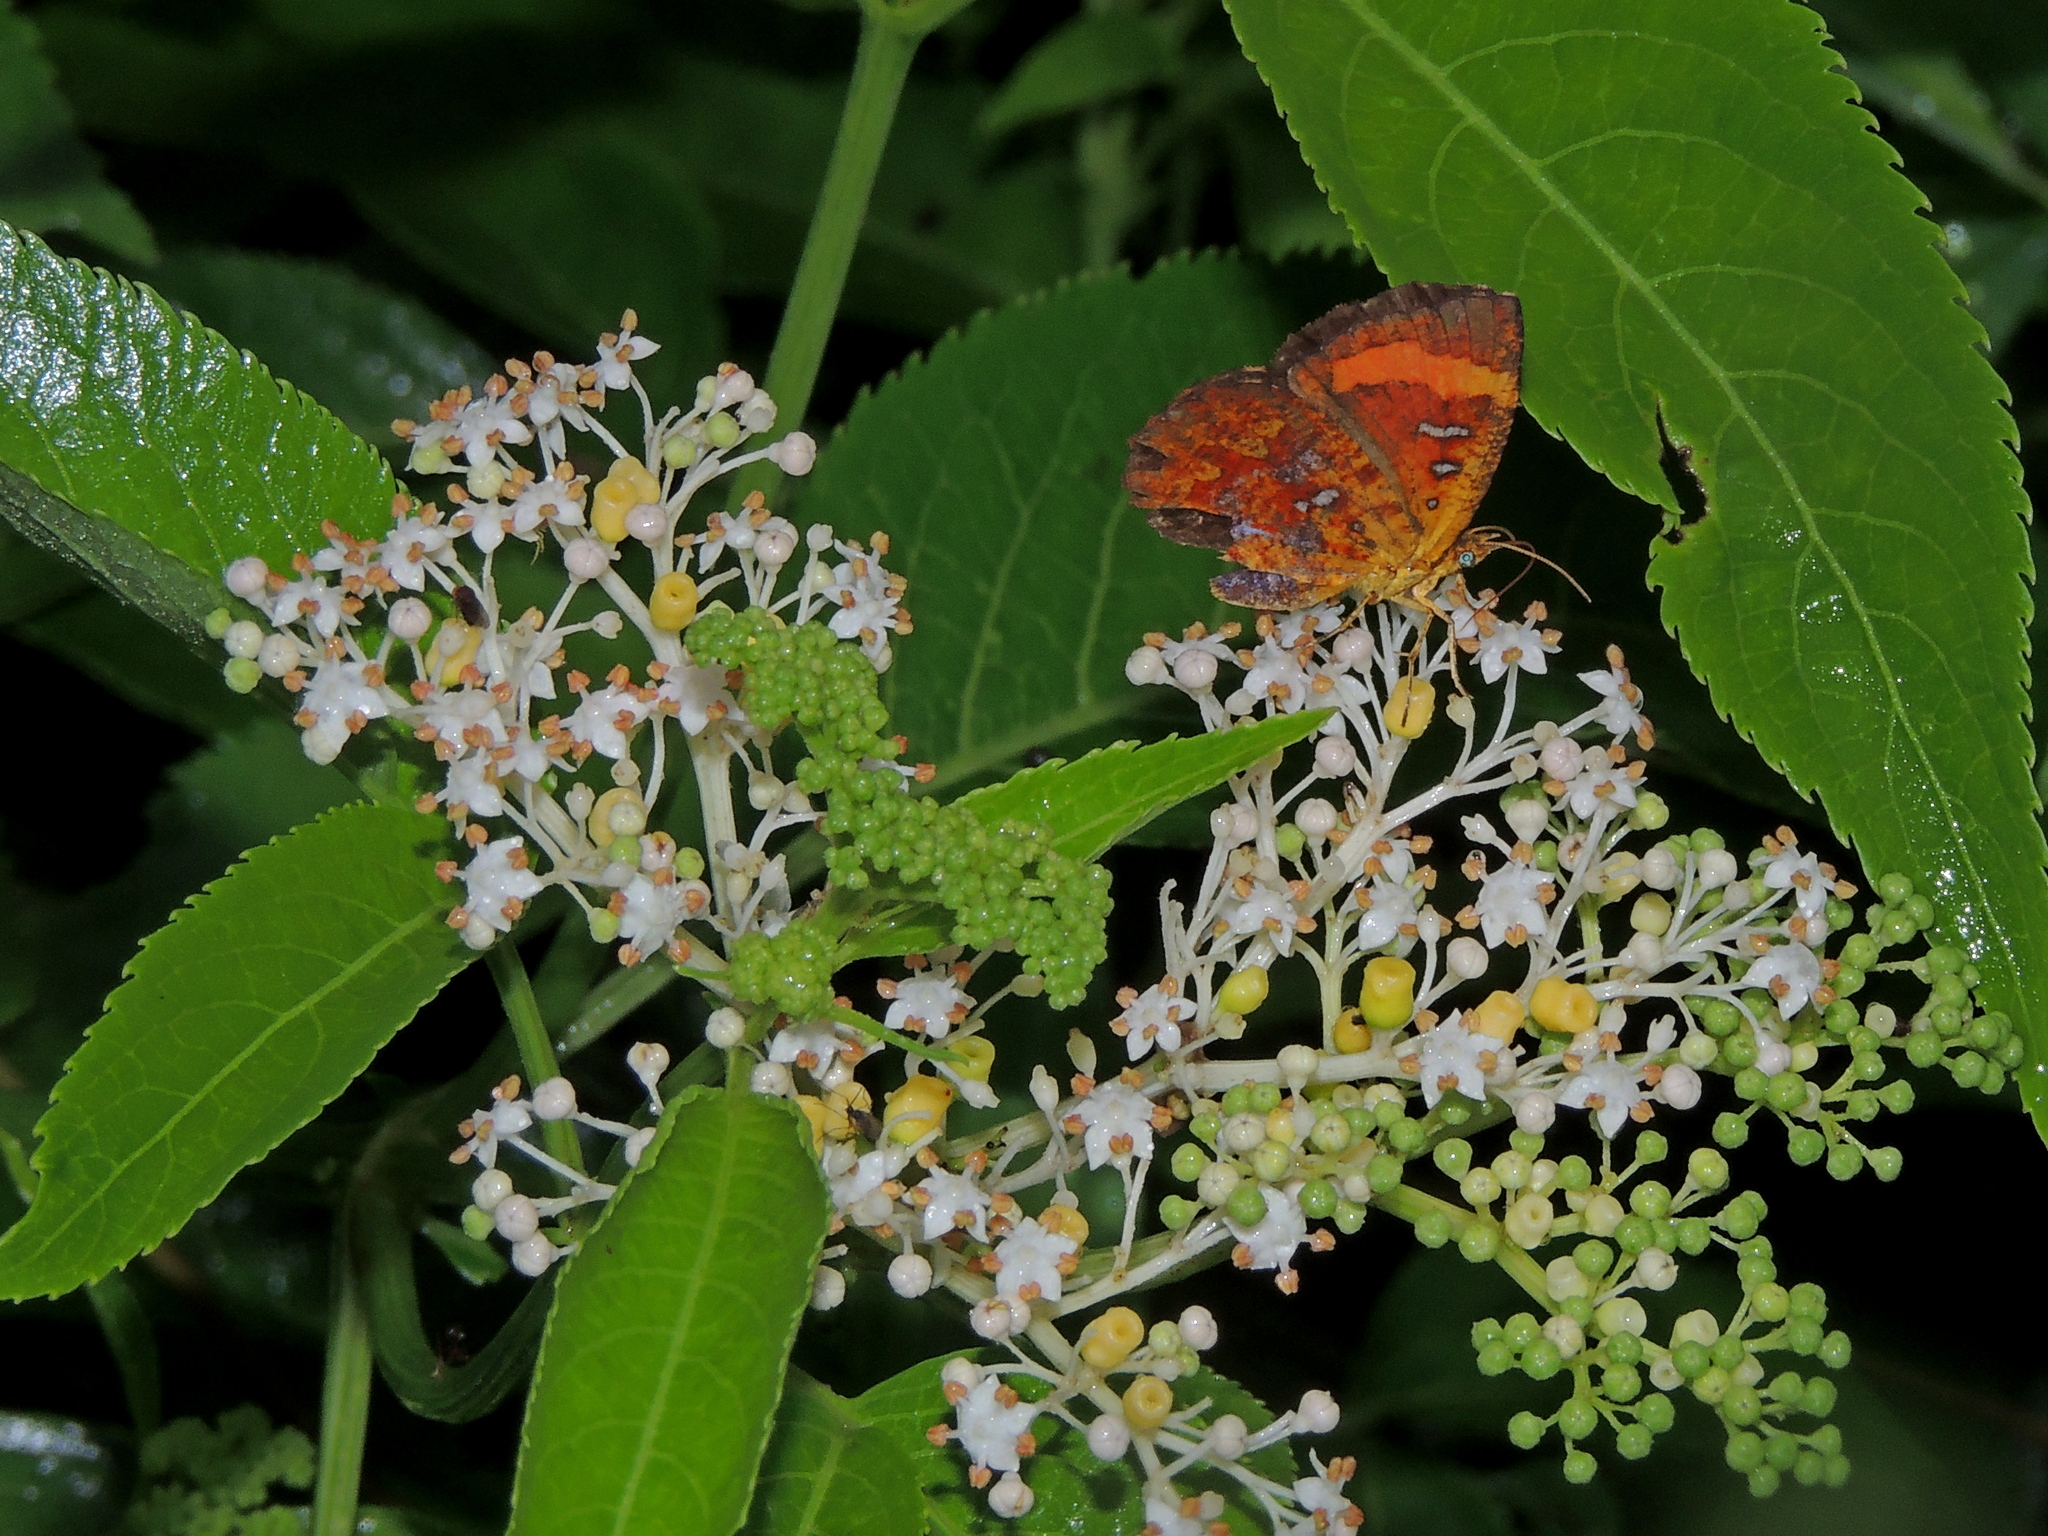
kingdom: Animalia
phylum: Arthropoda
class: Insecta
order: Lepidoptera
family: Callidulidae
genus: Petavia
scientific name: Petavia attenuata
